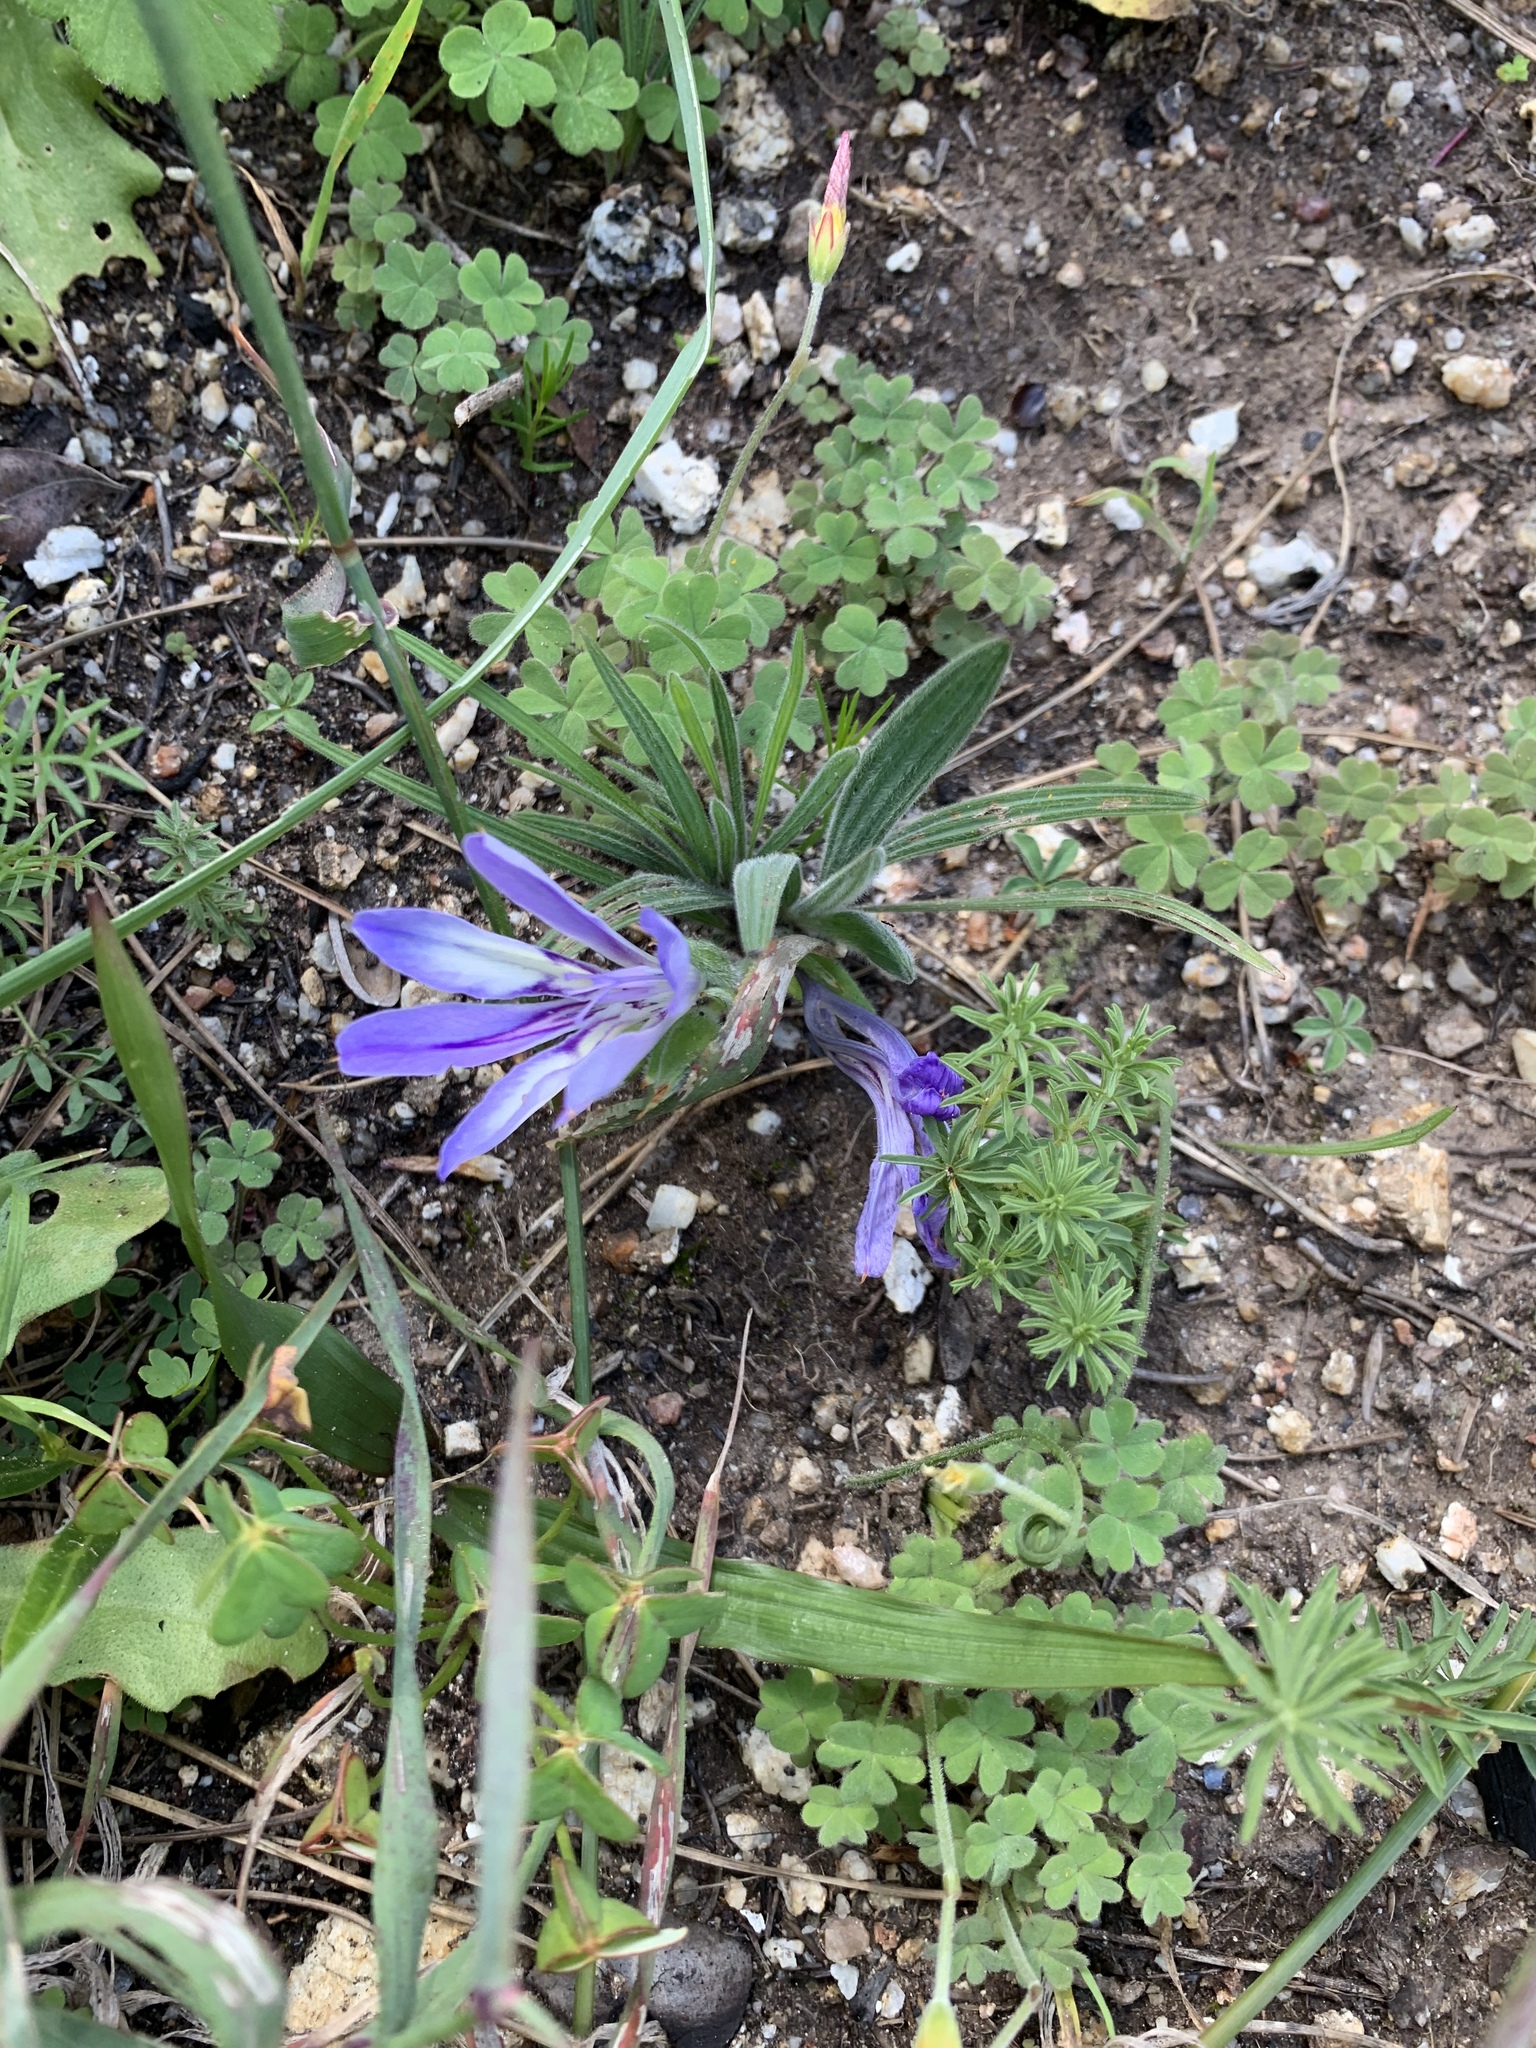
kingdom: Plantae
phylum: Tracheophyta
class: Liliopsida
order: Asparagales
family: Iridaceae
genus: Babiana
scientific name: Babiana ambigua
